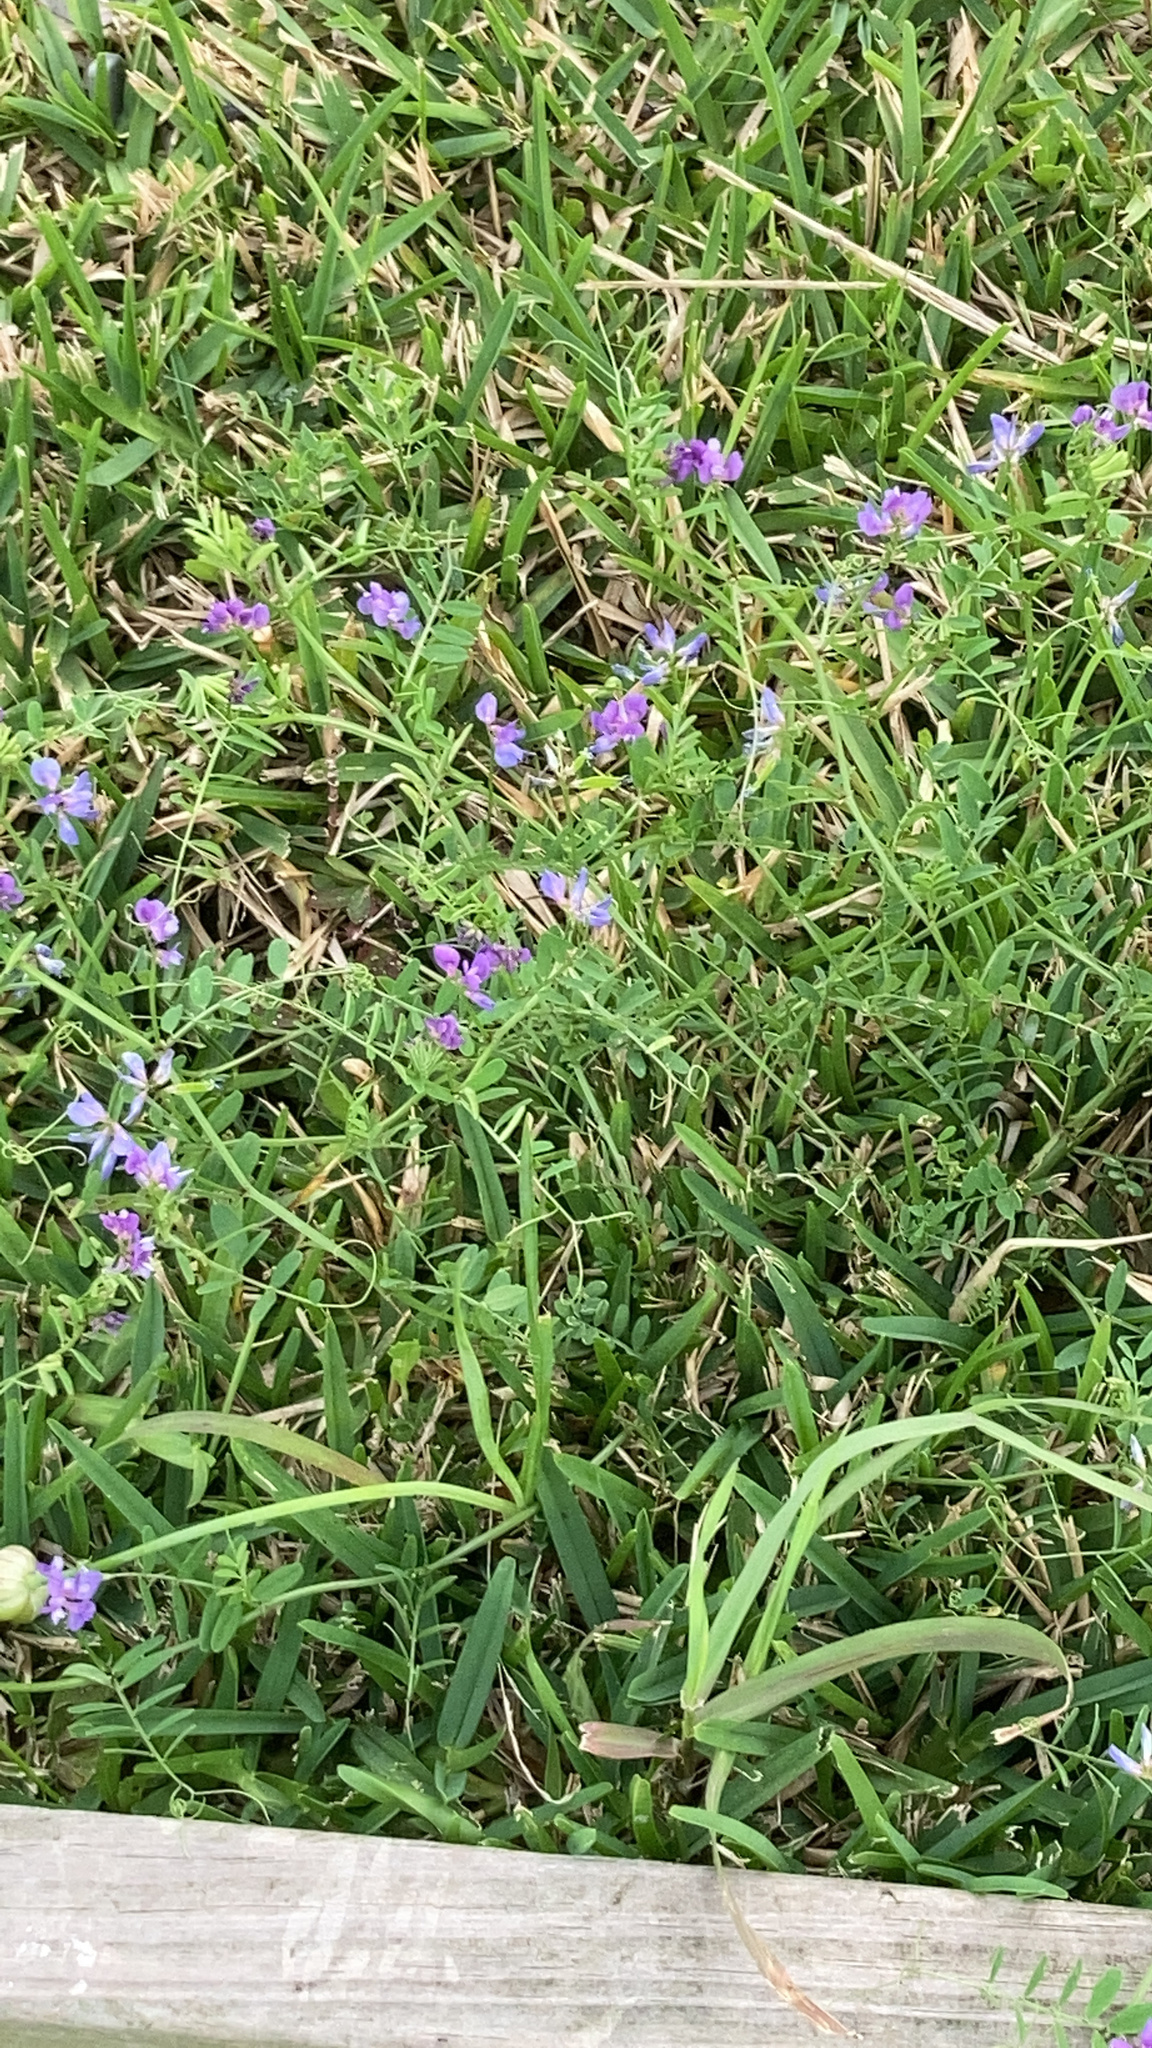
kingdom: Plantae
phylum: Tracheophyta
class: Magnoliopsida
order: Fabales
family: Fabaceae
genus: Vicia
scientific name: Vicia ludoviciana
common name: Louisiana vetch
